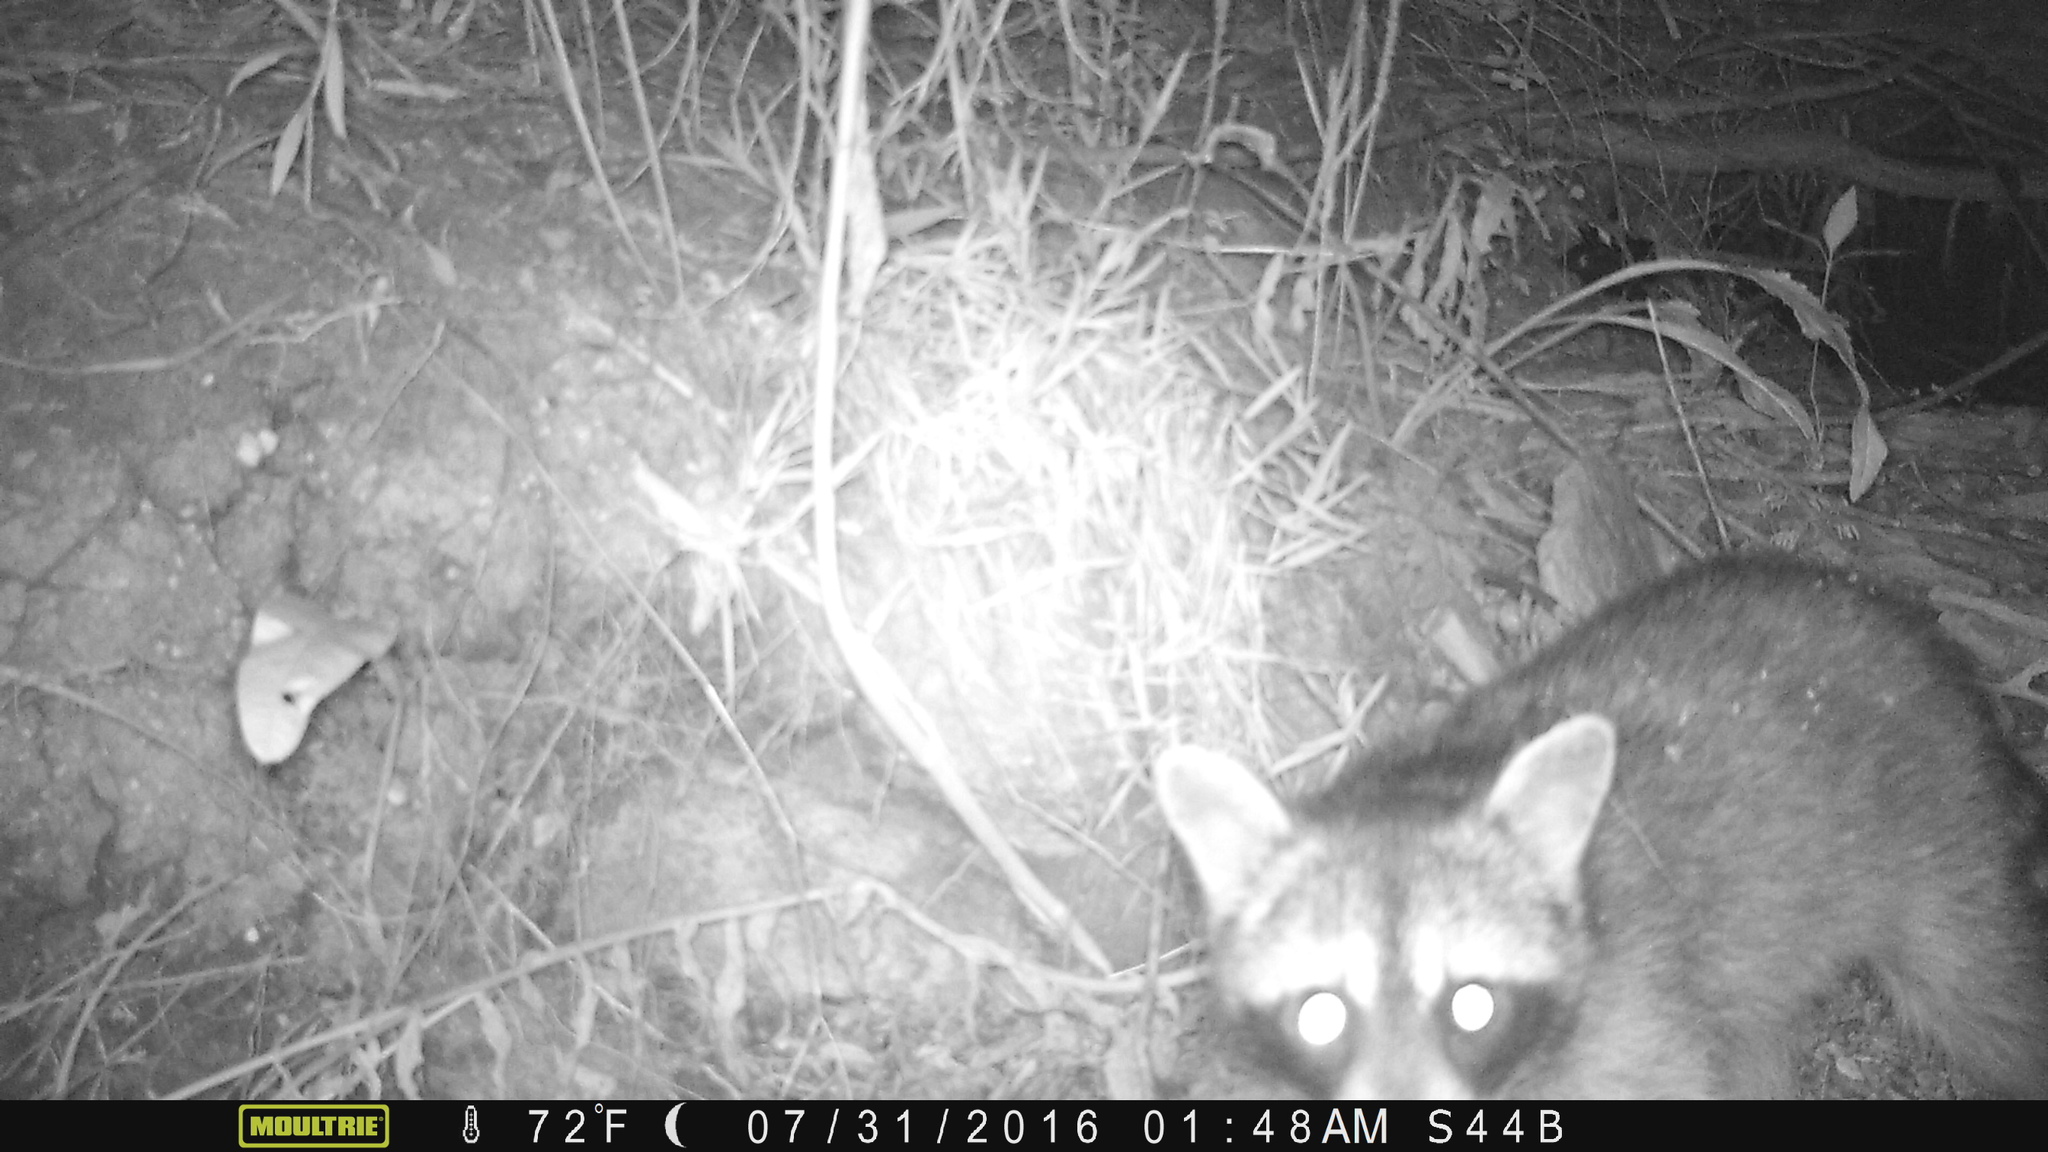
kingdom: Animalia
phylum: Chordata
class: Mammalia
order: Carnivora
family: Procyonidae
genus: Procyon
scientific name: Procyon lotor
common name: Raccoon
